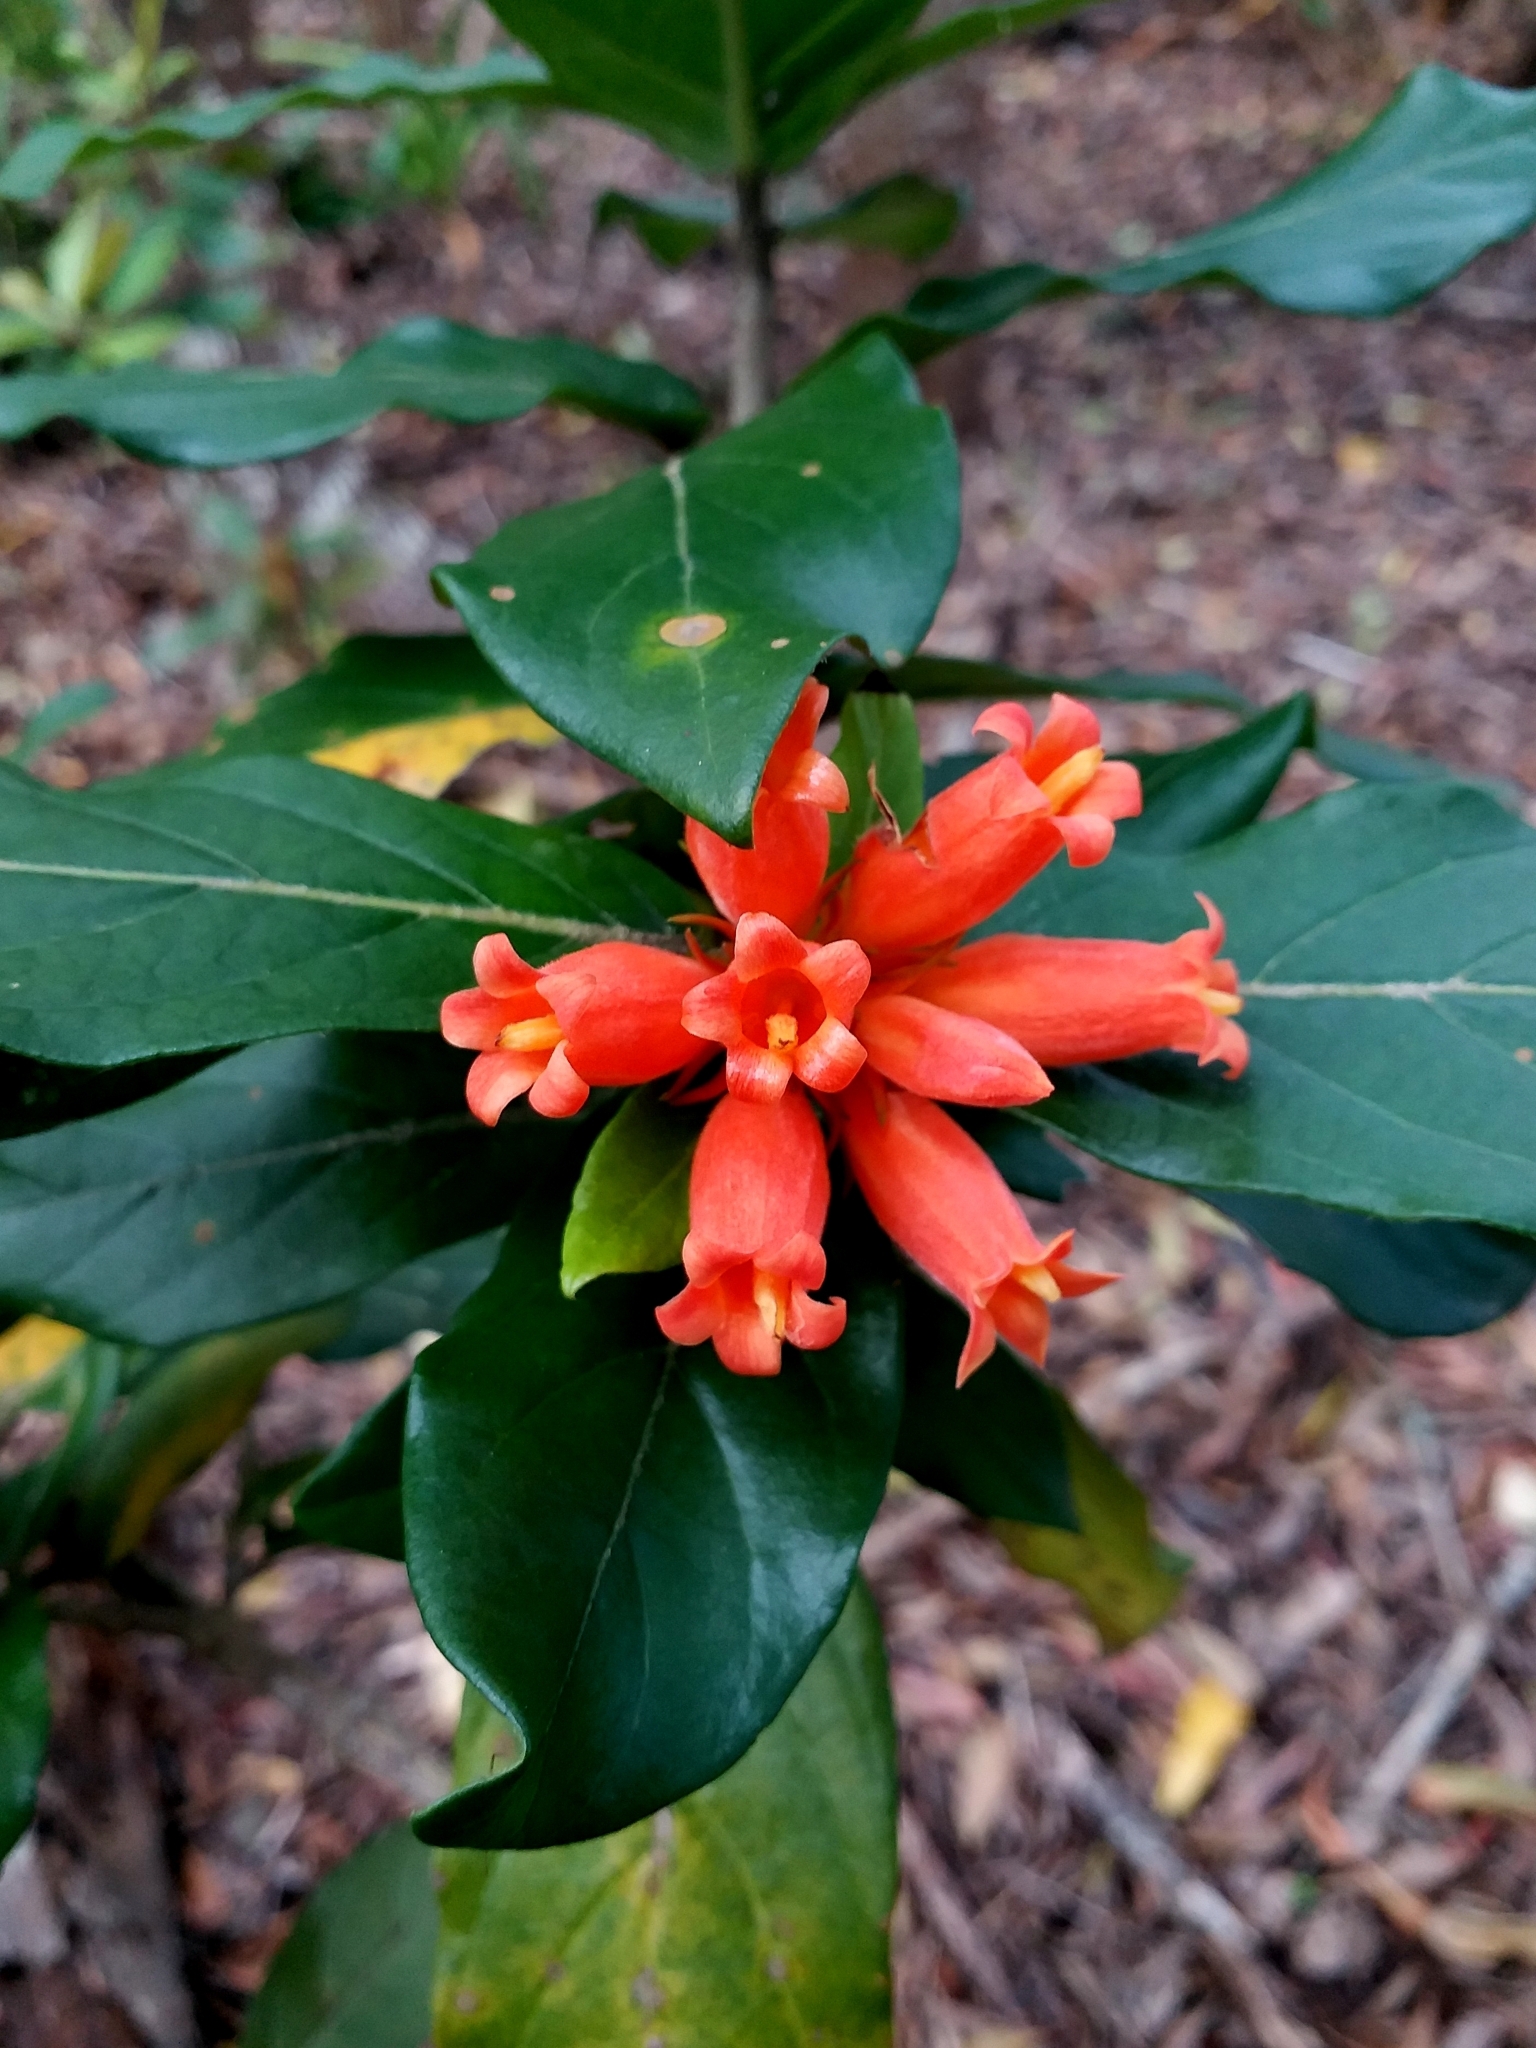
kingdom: Plantae
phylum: Tracheophyta
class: Magnoliopsida
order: Gentianales
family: Rubiaceae
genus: Burchellia
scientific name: Burchellia bubalina
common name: Wild pomegranate
